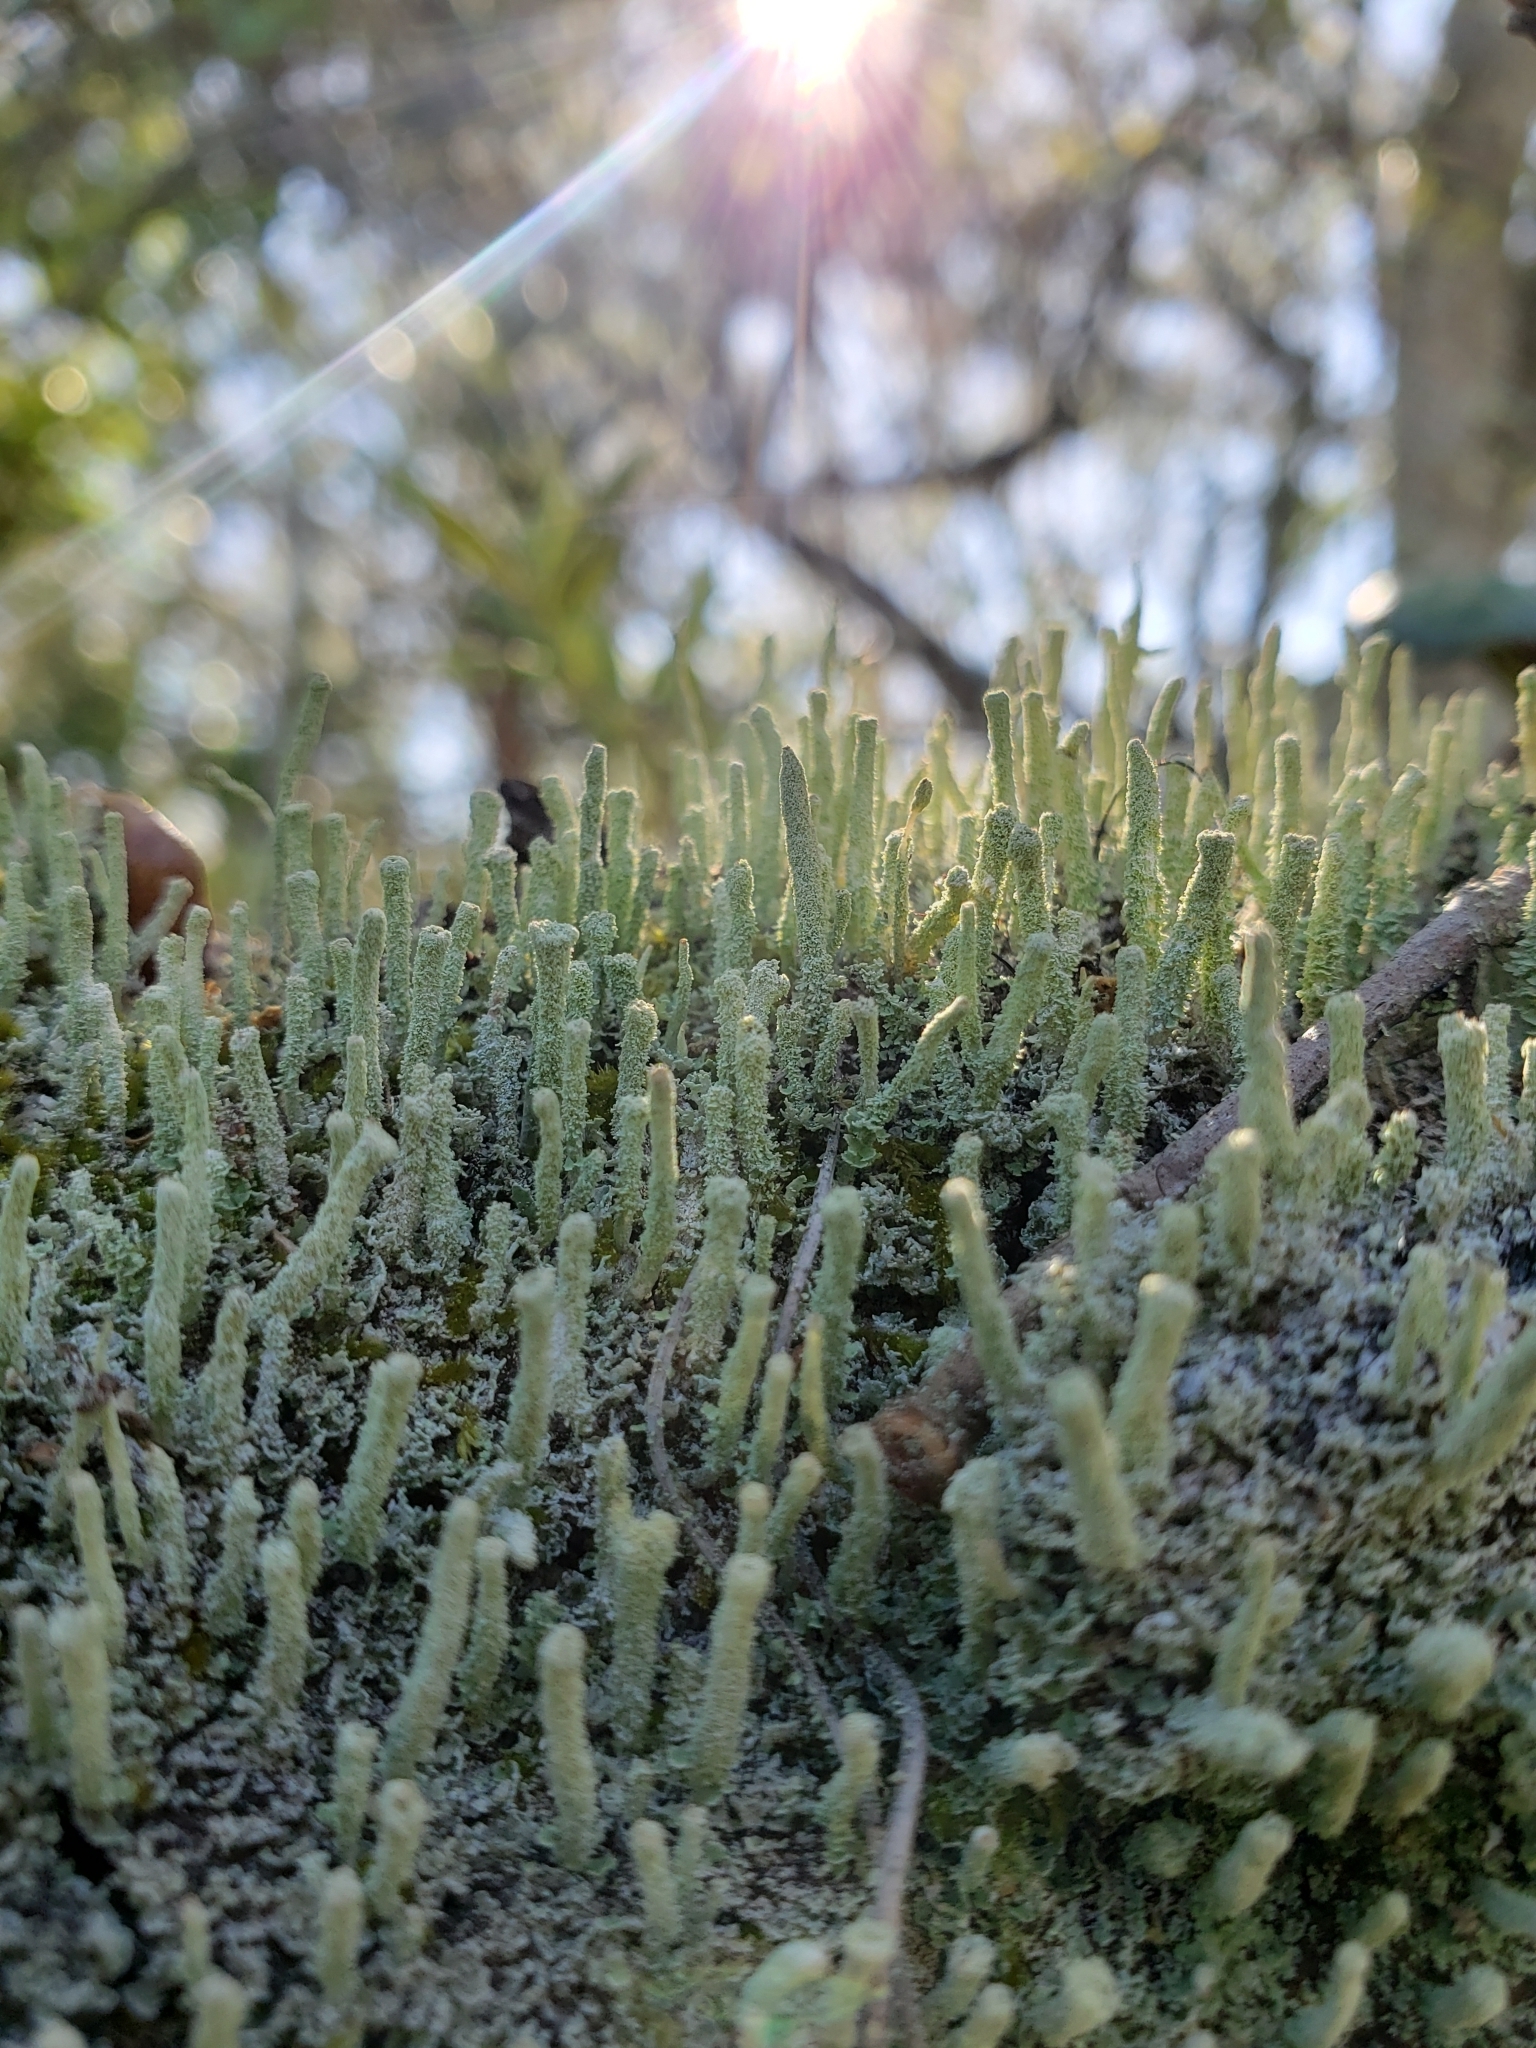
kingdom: Fungi
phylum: Ascomycota
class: Lecanoromycetes
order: Lecanorales
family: Cladoniaceae
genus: Cladonia
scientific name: Cladonia subradiata
